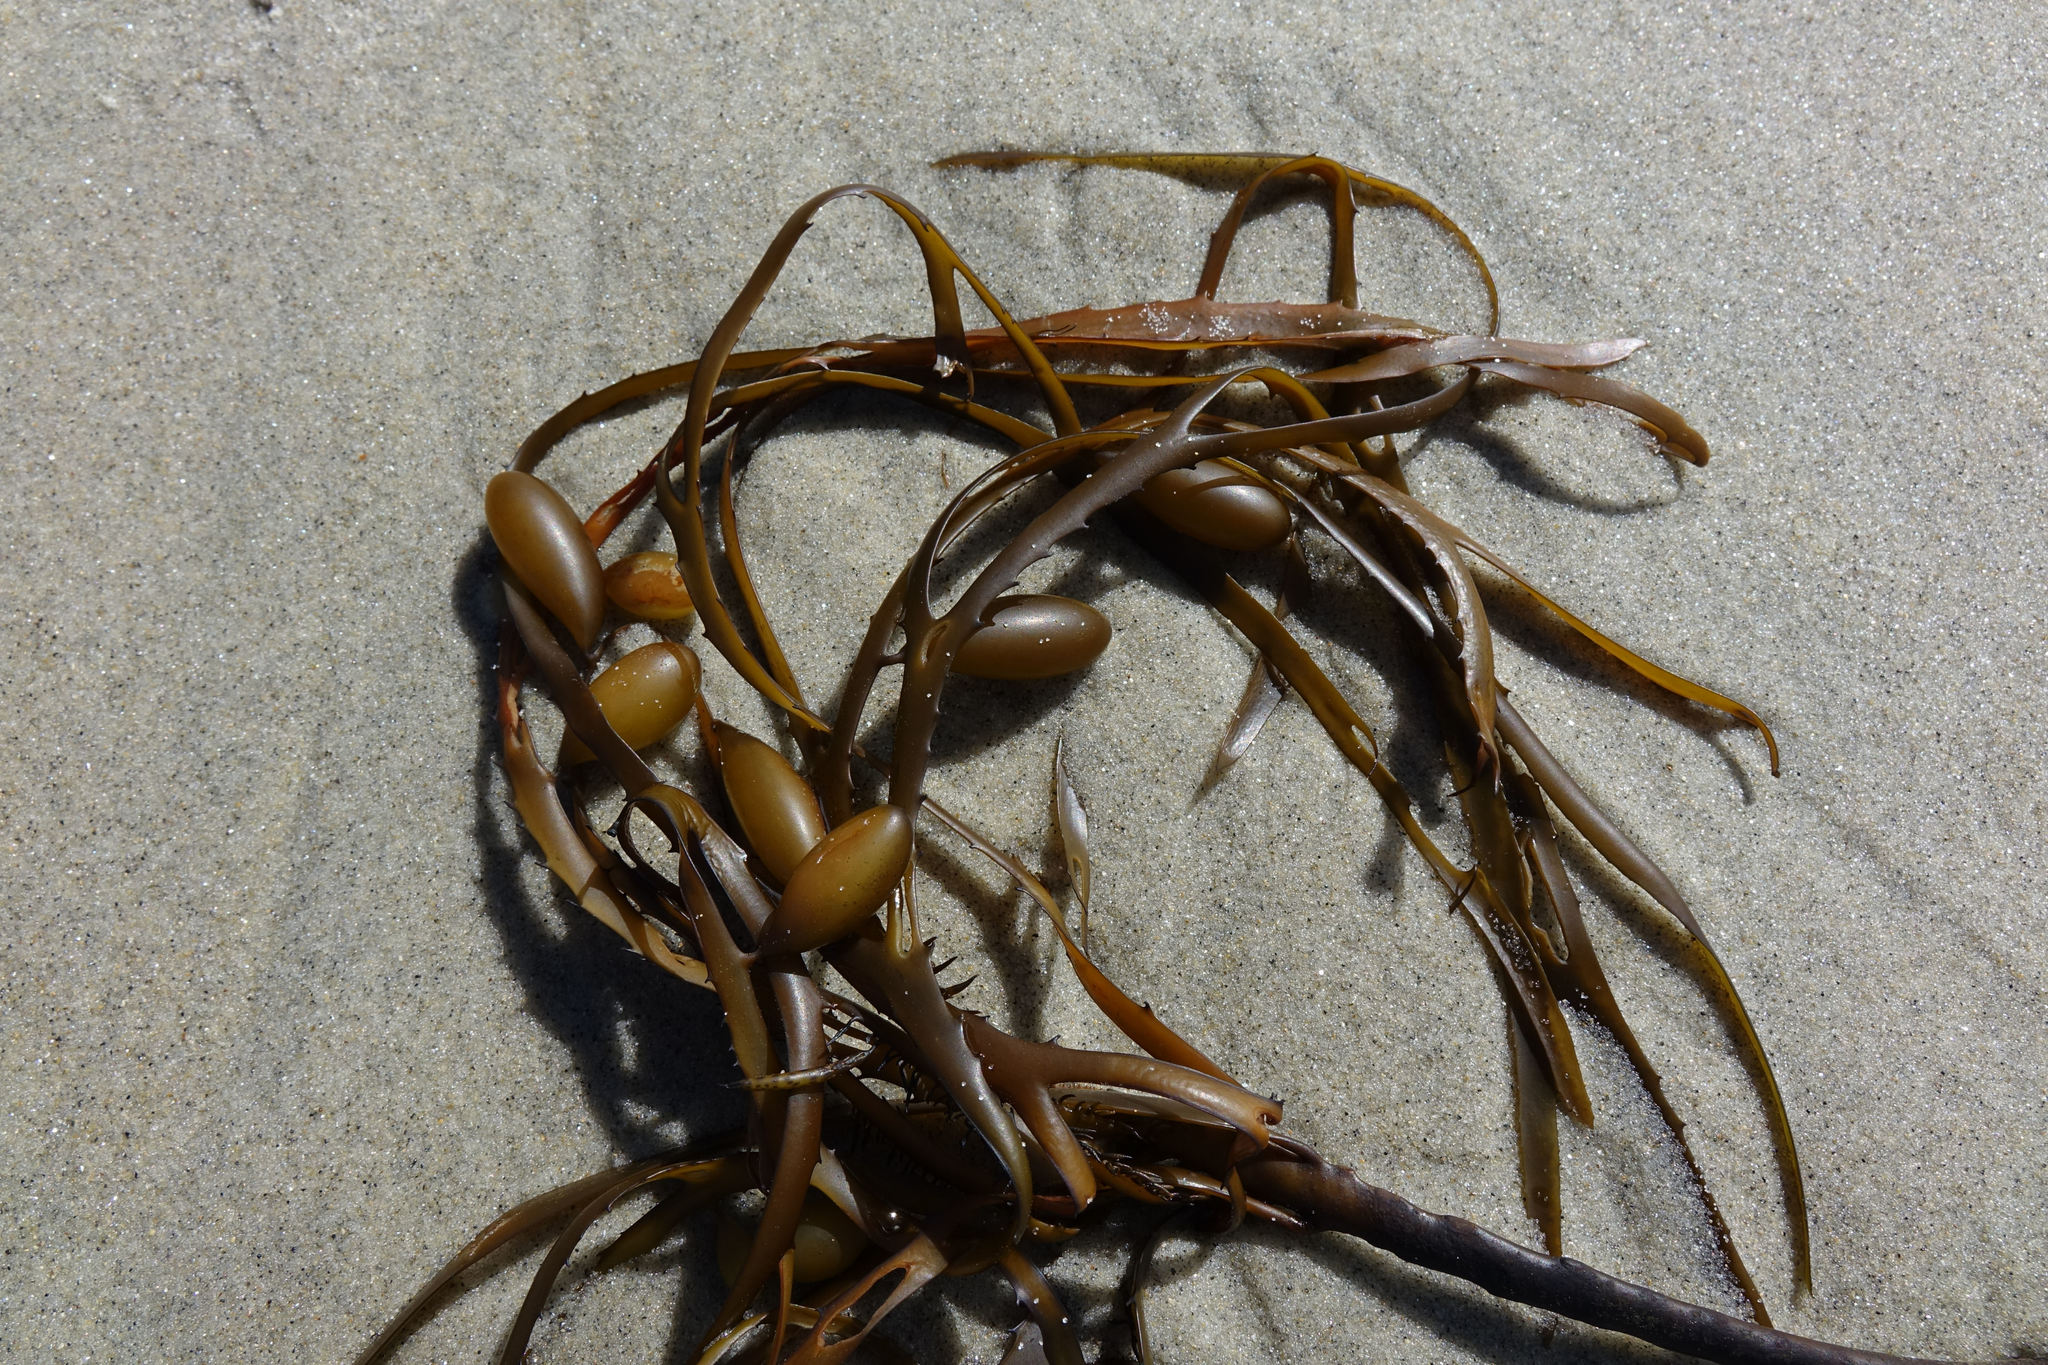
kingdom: Chromista
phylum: Ochrophyta
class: Phaeophyceae
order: Fucales
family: Seirococcaceae
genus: Marginariella
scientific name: Marginariella boryana
